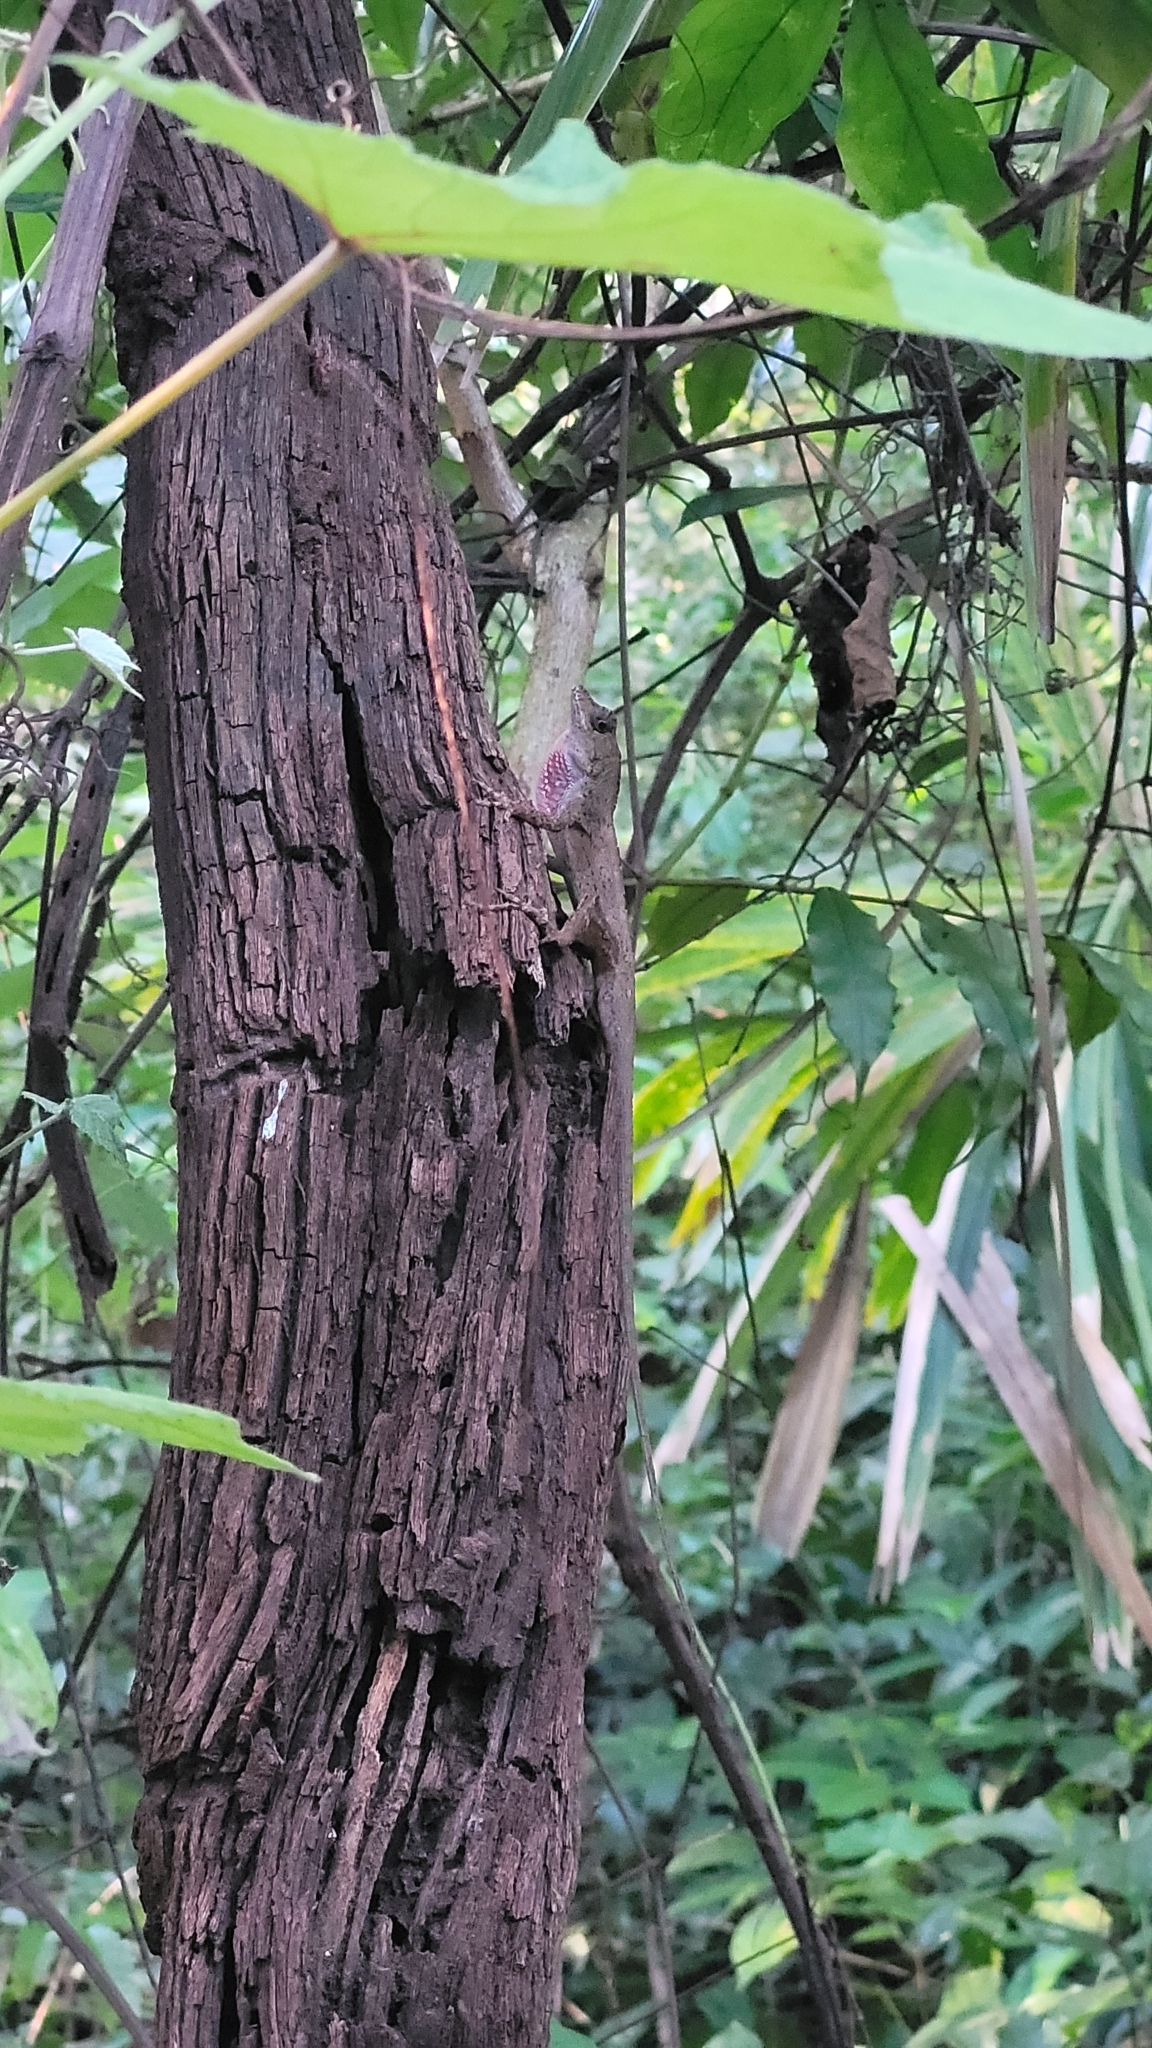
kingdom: Animalia
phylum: Chordata
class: Squamata
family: Dactyloidae
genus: Anolis
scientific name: Anolis bicaorum
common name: Bay islands anole
